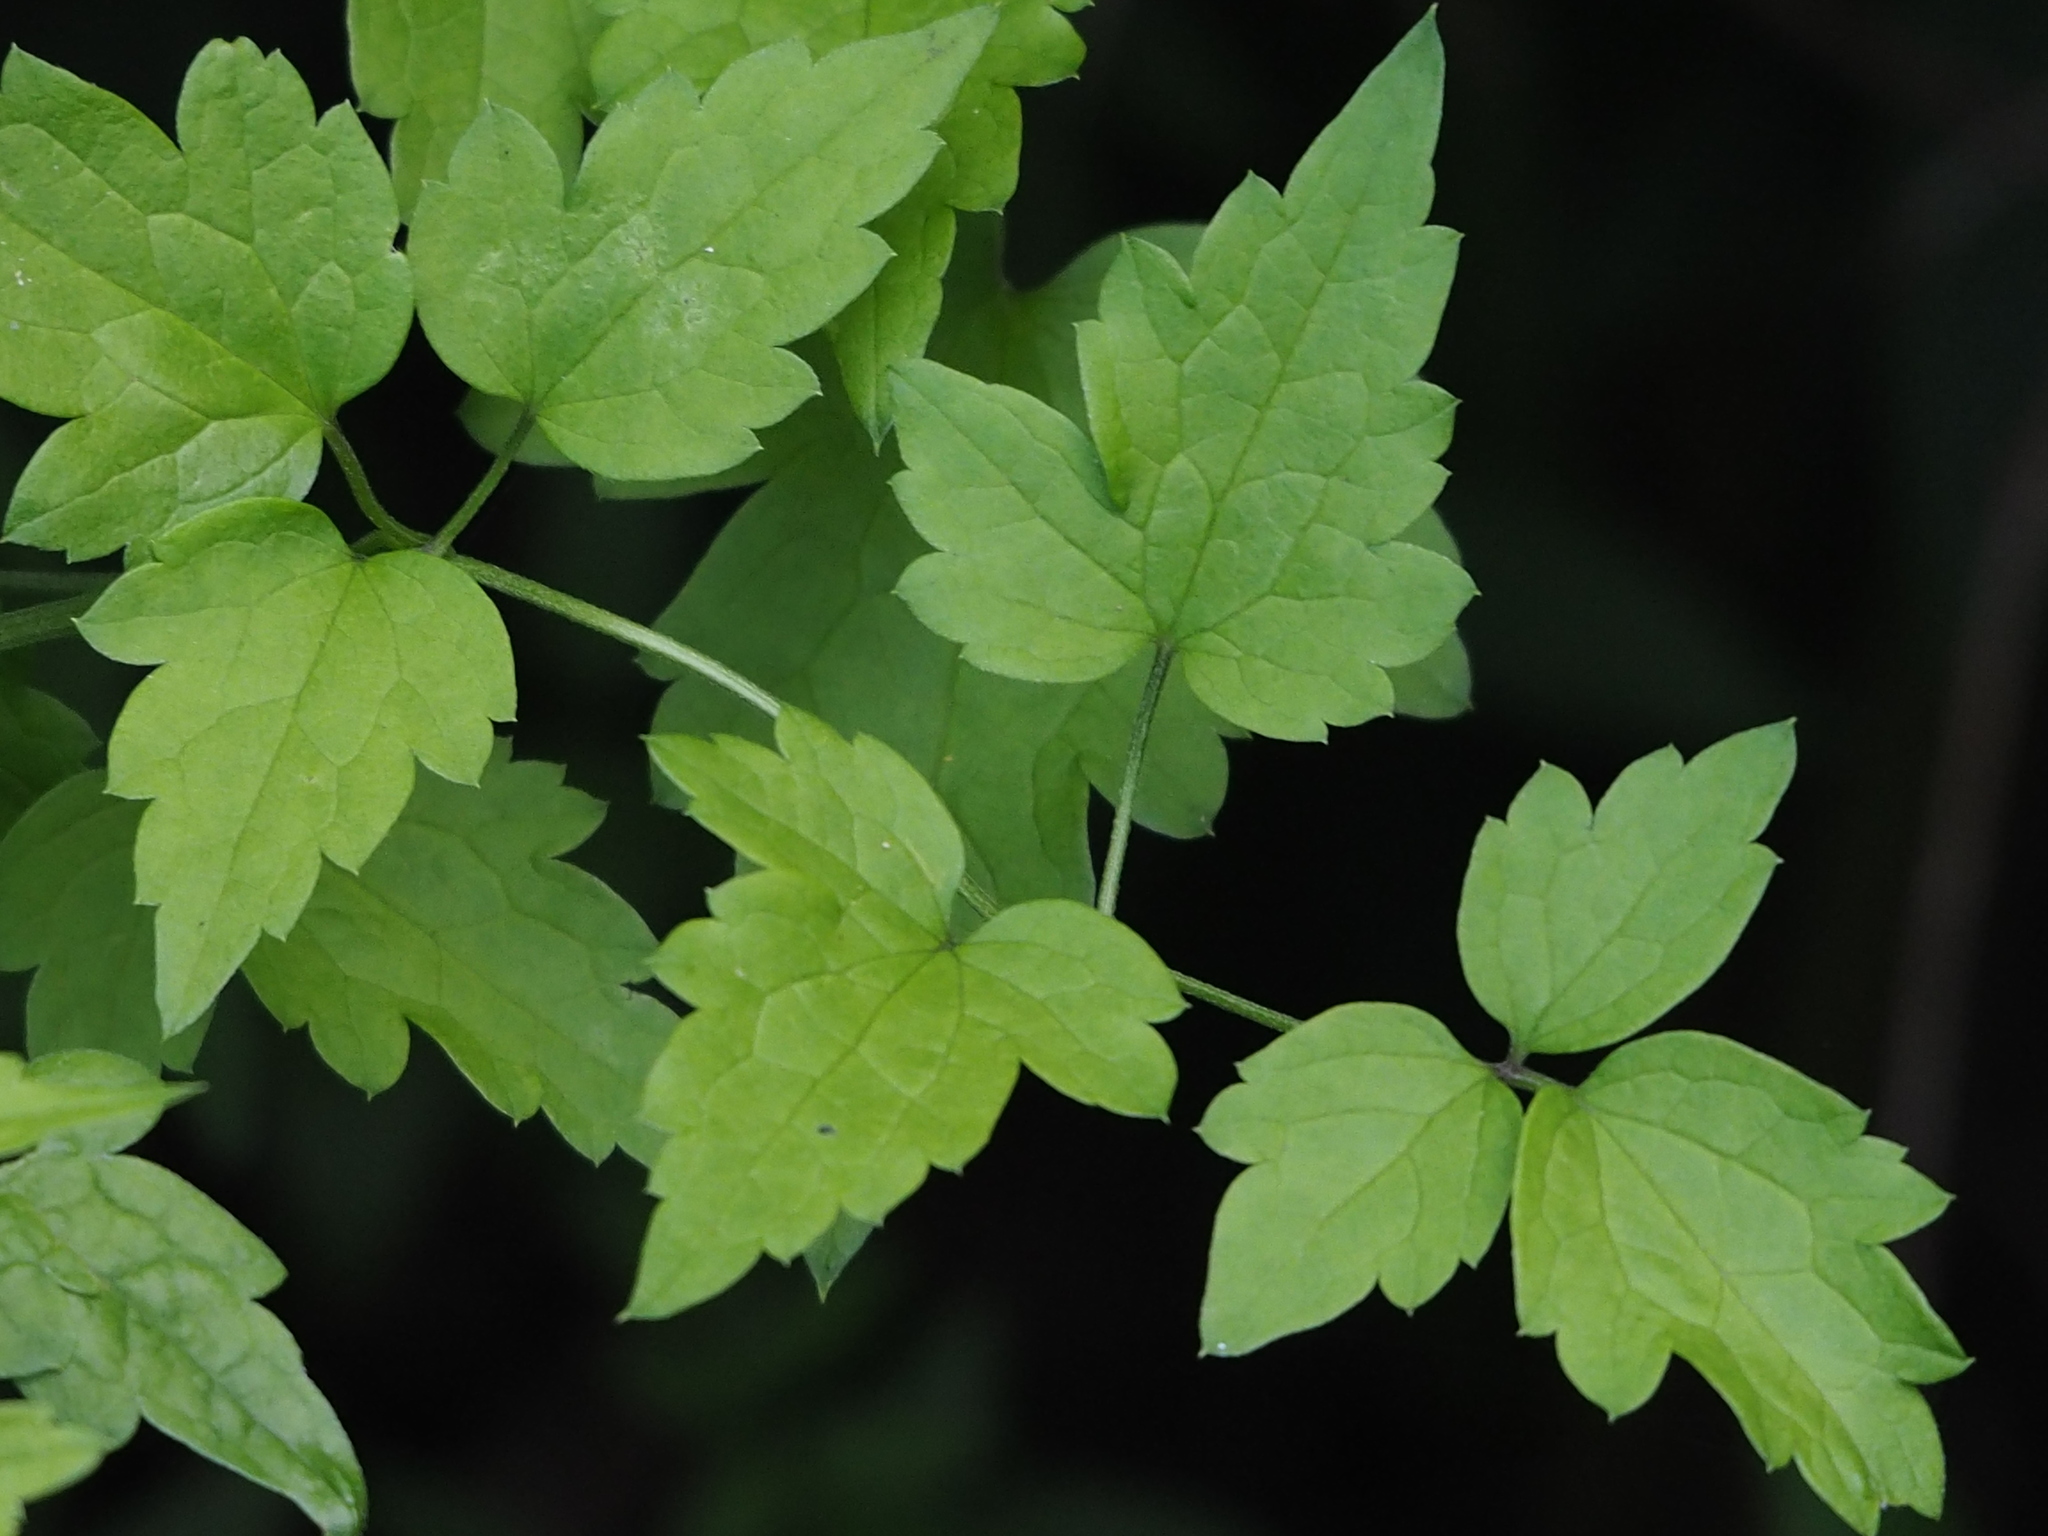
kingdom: Plantae
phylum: Tracheophyta
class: Magnoliopsida
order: Ranunculales
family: Ranunculaceae
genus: Clematis
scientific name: Clematis grata
